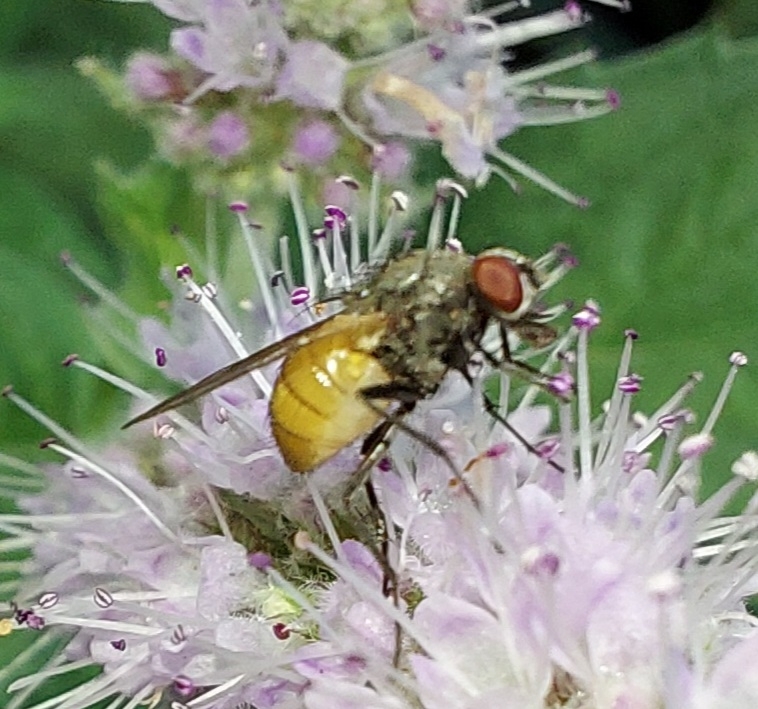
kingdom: Animalia
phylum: Arthropoda
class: Insecta
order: Diptera
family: Muscidae
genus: Thricops
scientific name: Thricops semicinereus
